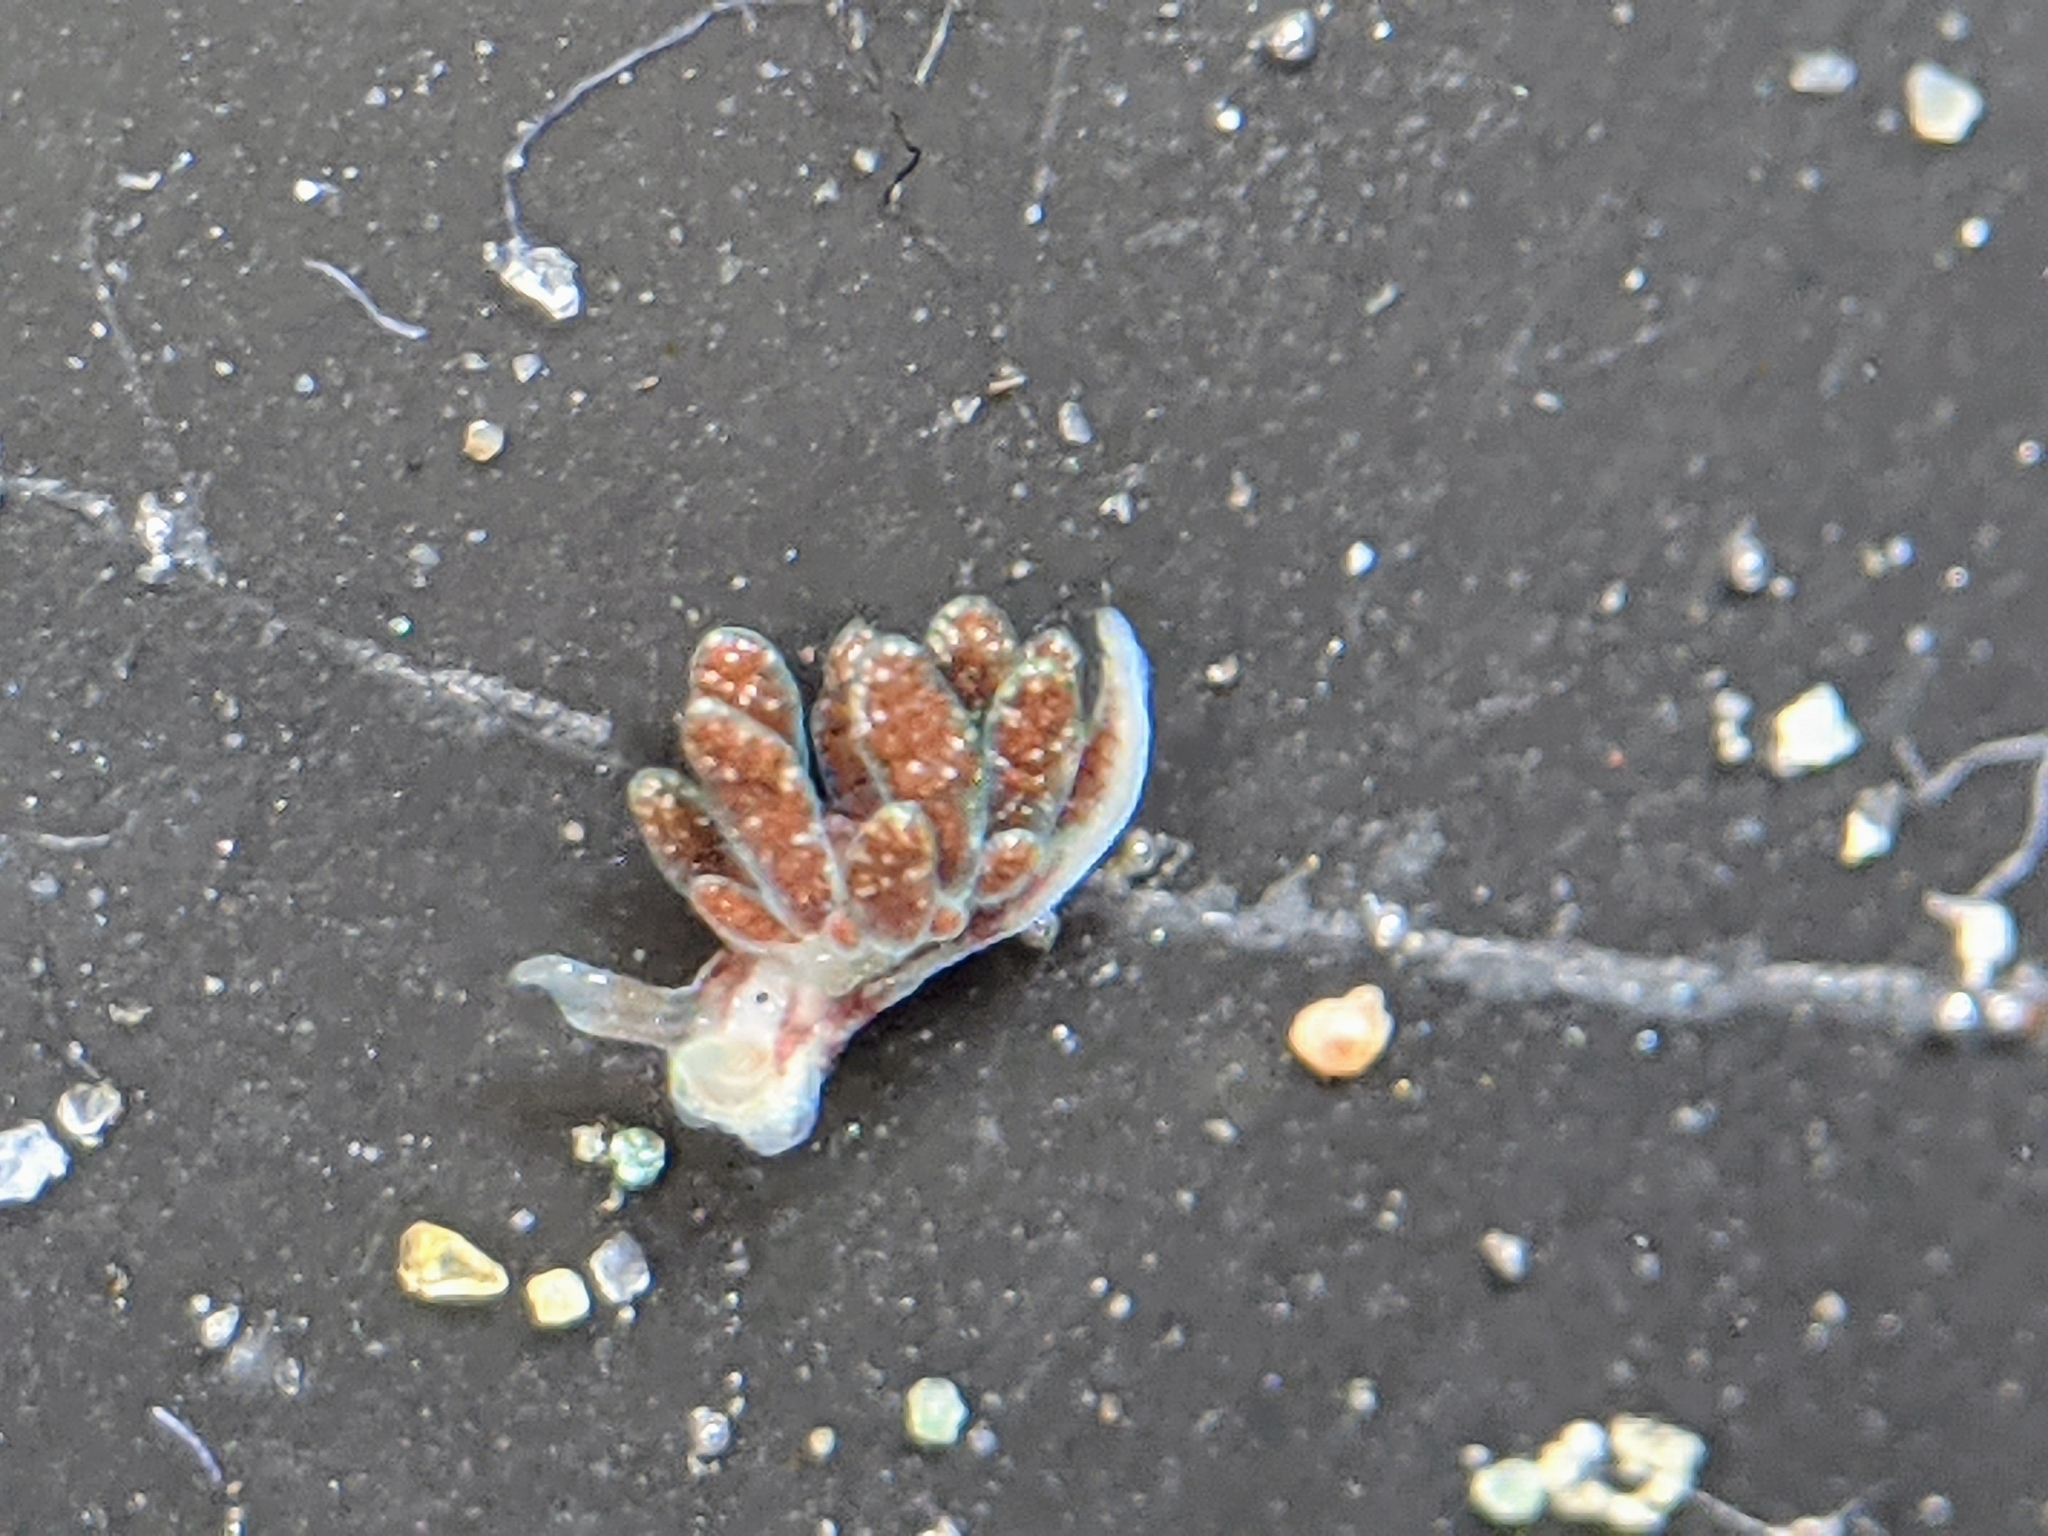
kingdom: Animalia
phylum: Mollusca
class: Gastropoda
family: Hermaeidae
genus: Hermaea
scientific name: Hermaea oliviae
